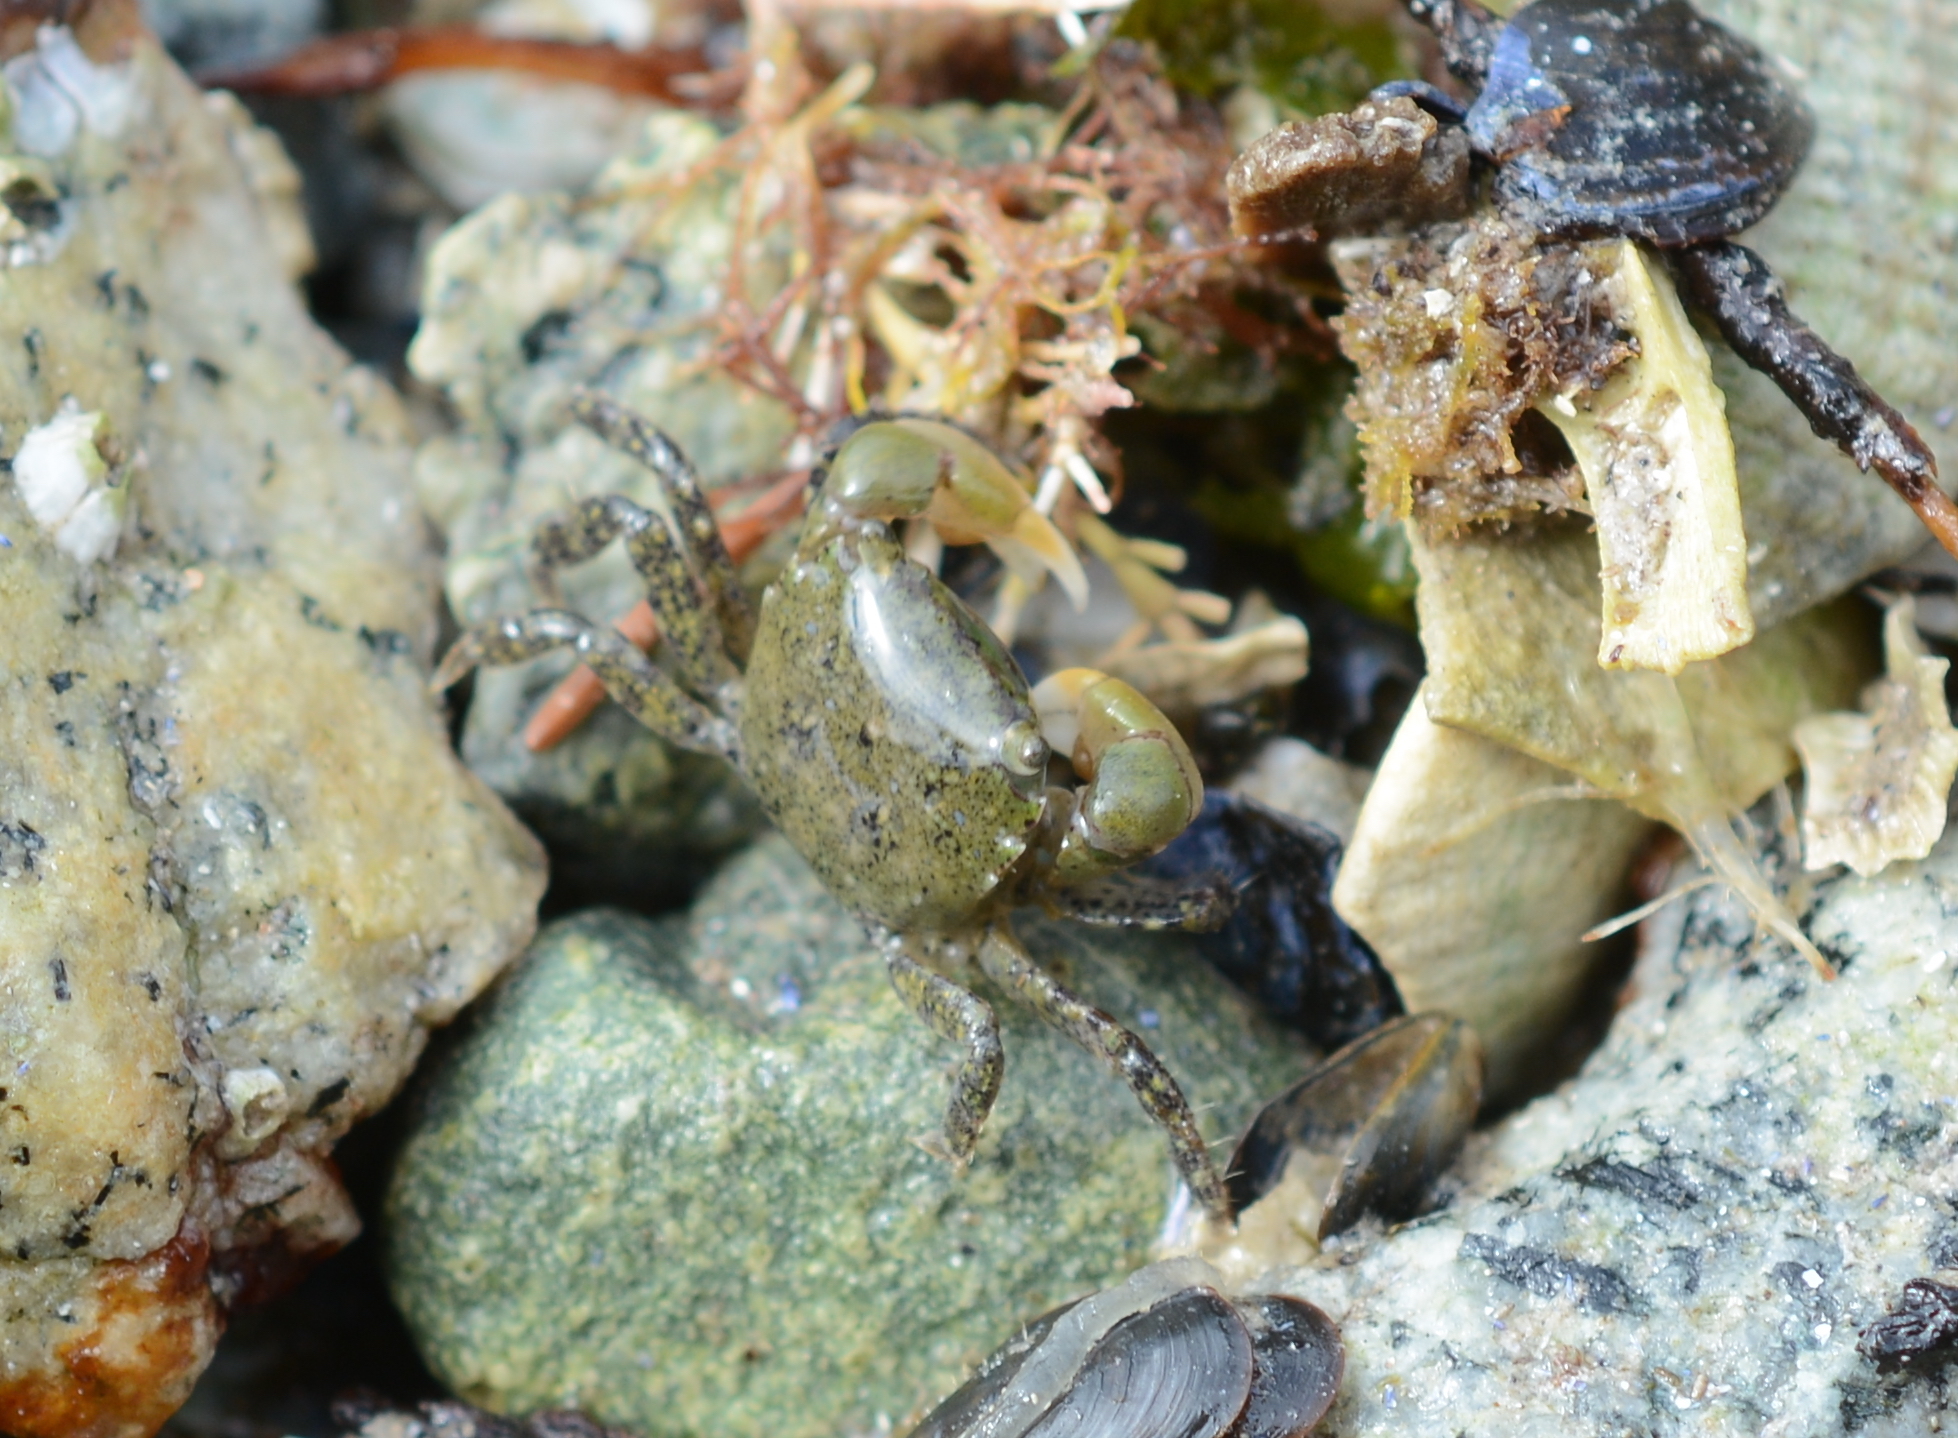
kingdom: Animalia
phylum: Arthropoda
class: Malacostraca
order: Decapoda
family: Varunidae
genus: Hemigrapsus
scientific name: Hemigrapsus oregonensis
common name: Yellow shore crab
